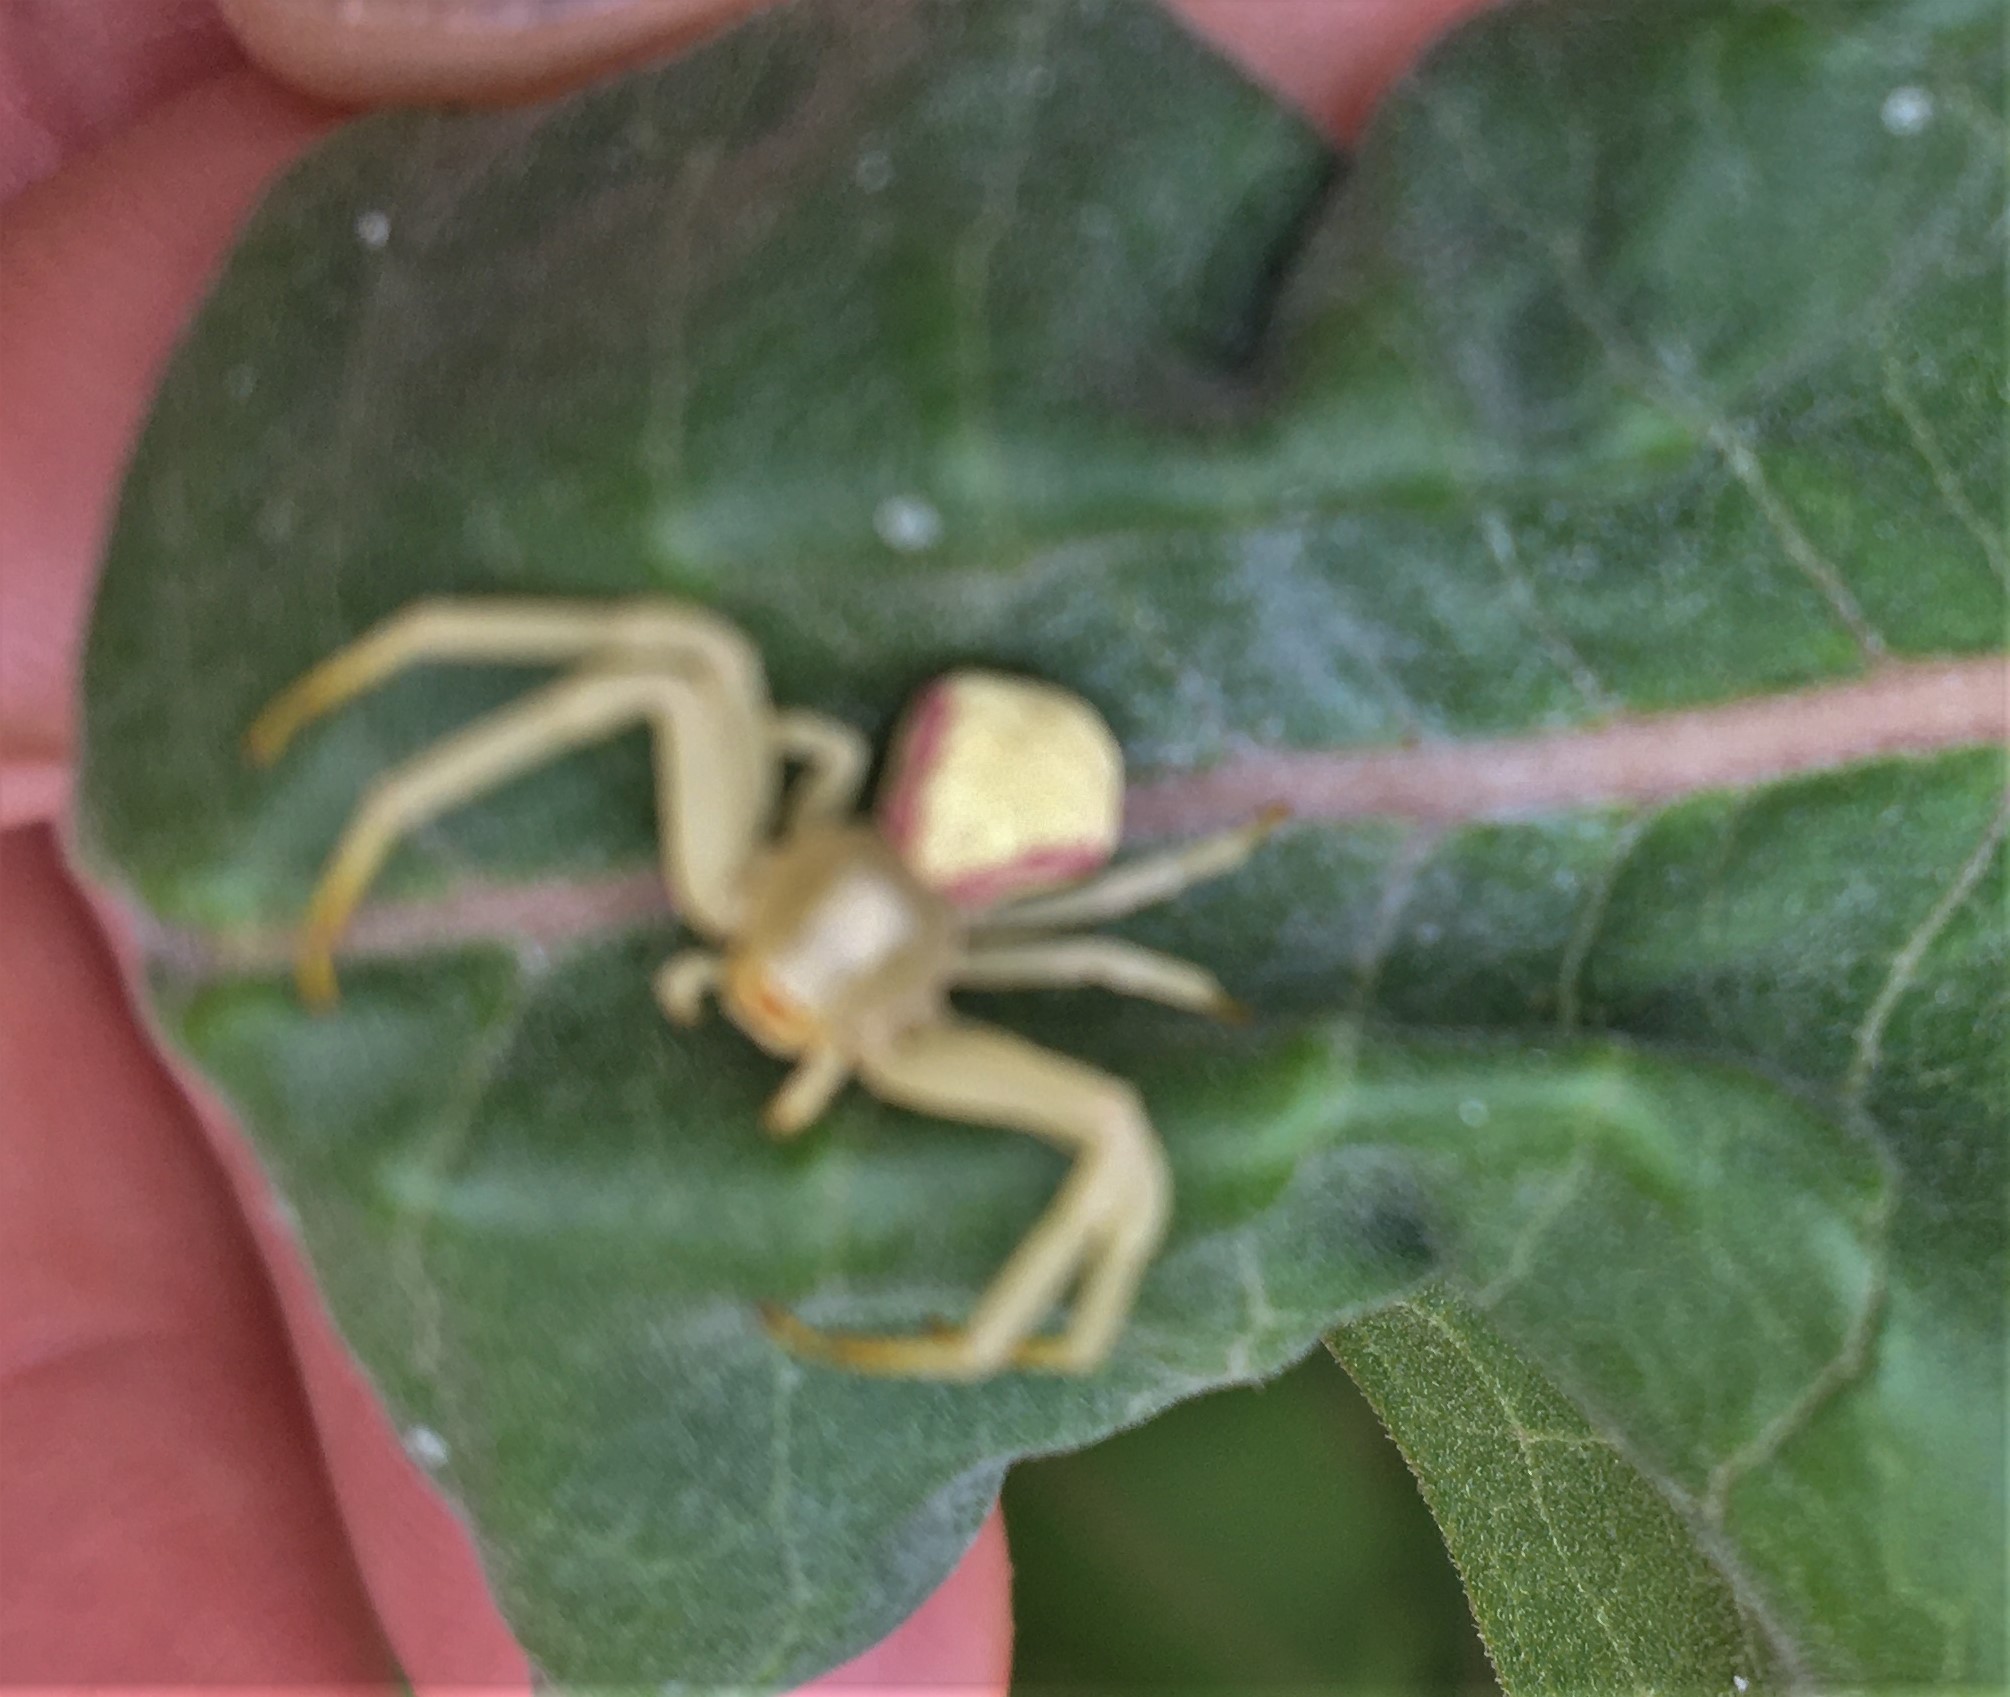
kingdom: Animalia
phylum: Arthropoda
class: Arachnida
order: Araneae
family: Thomisidae
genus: Misumena
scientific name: Misumena vatia
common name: Goldenrod crab spider
